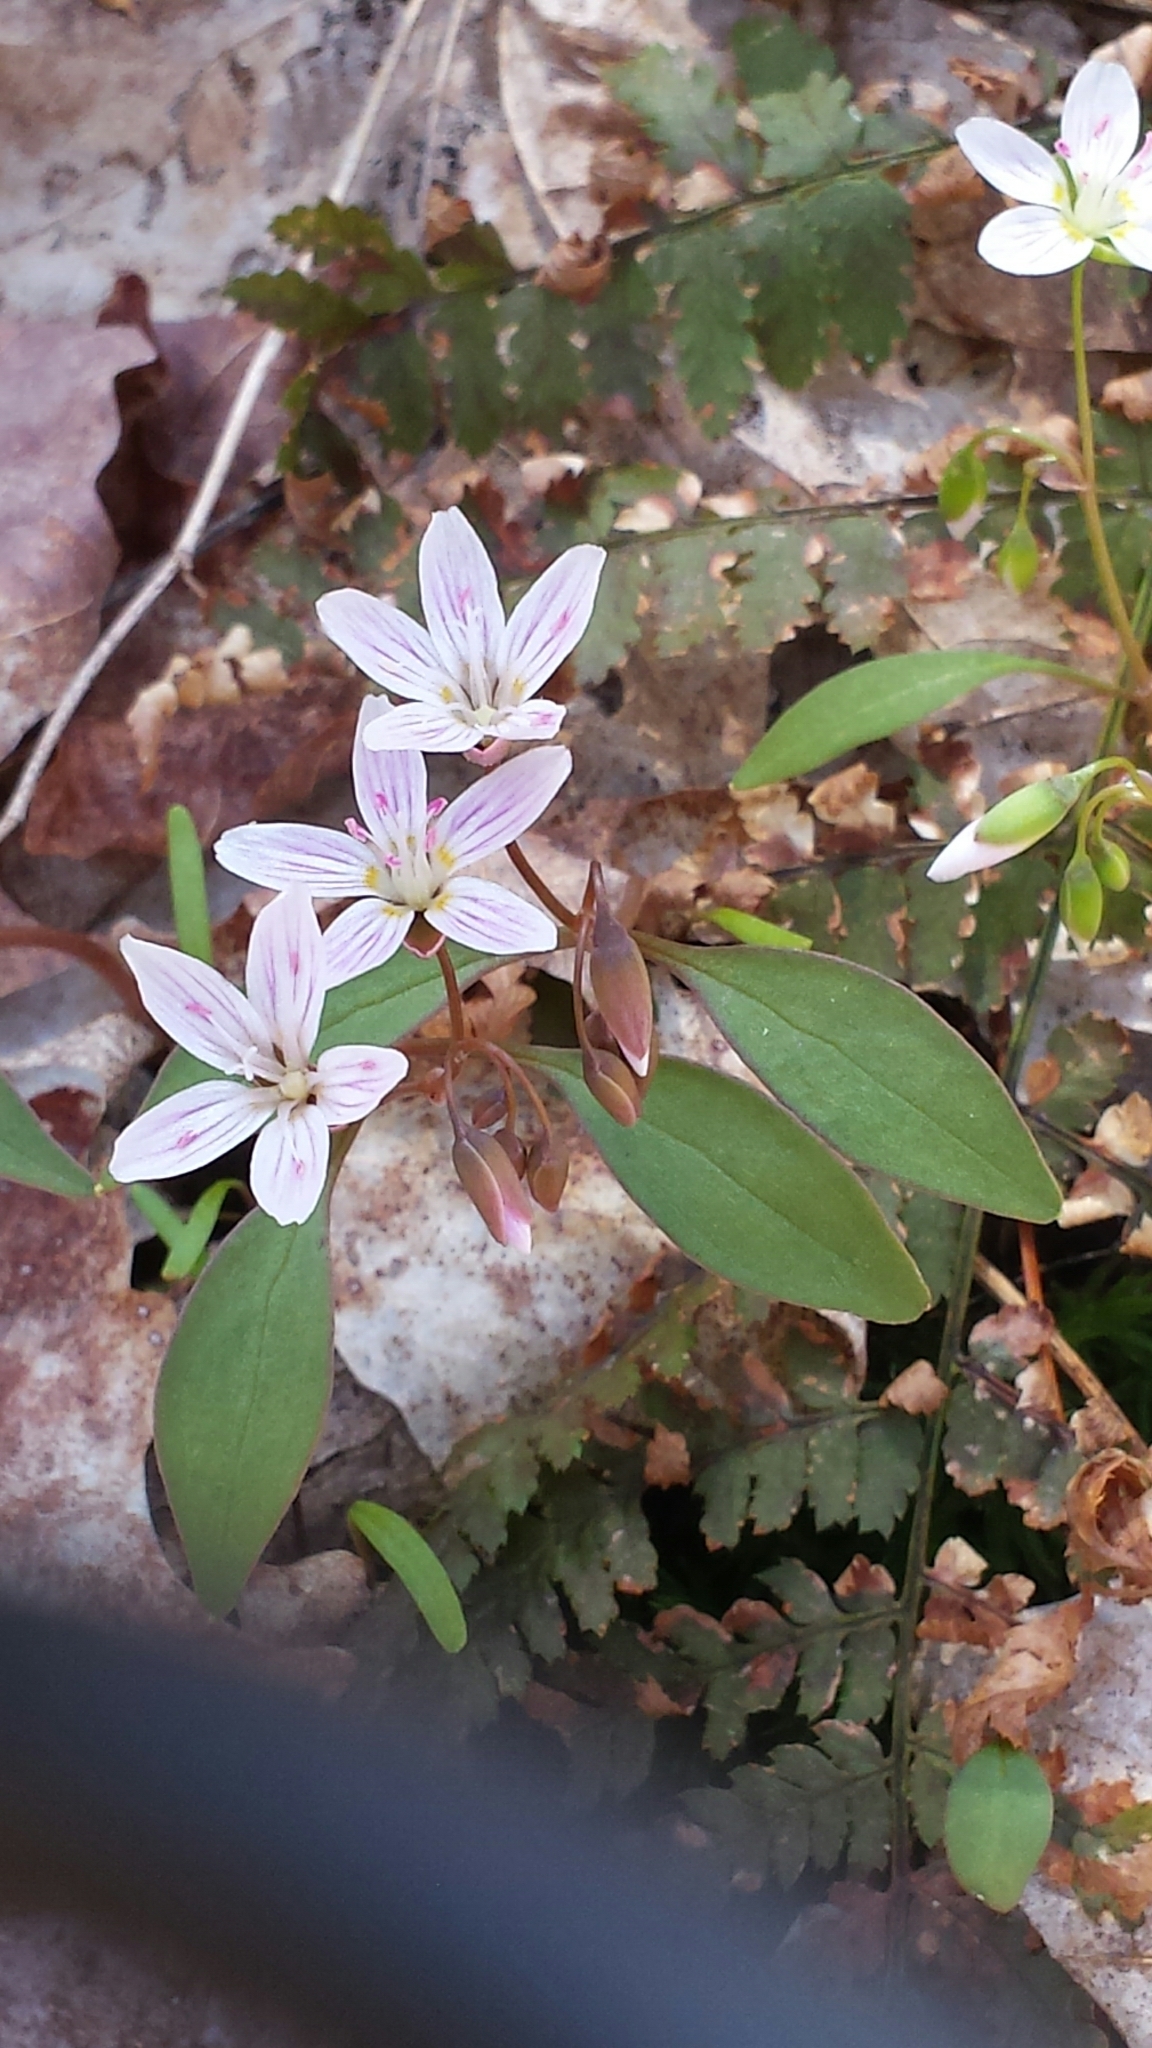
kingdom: Plantae
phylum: Tracheophyta
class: Magnoliopsida
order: Caryophyllales
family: Montiaceae
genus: Claytonia
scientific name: Claytonia caroliniana
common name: Carolina spring beauty
